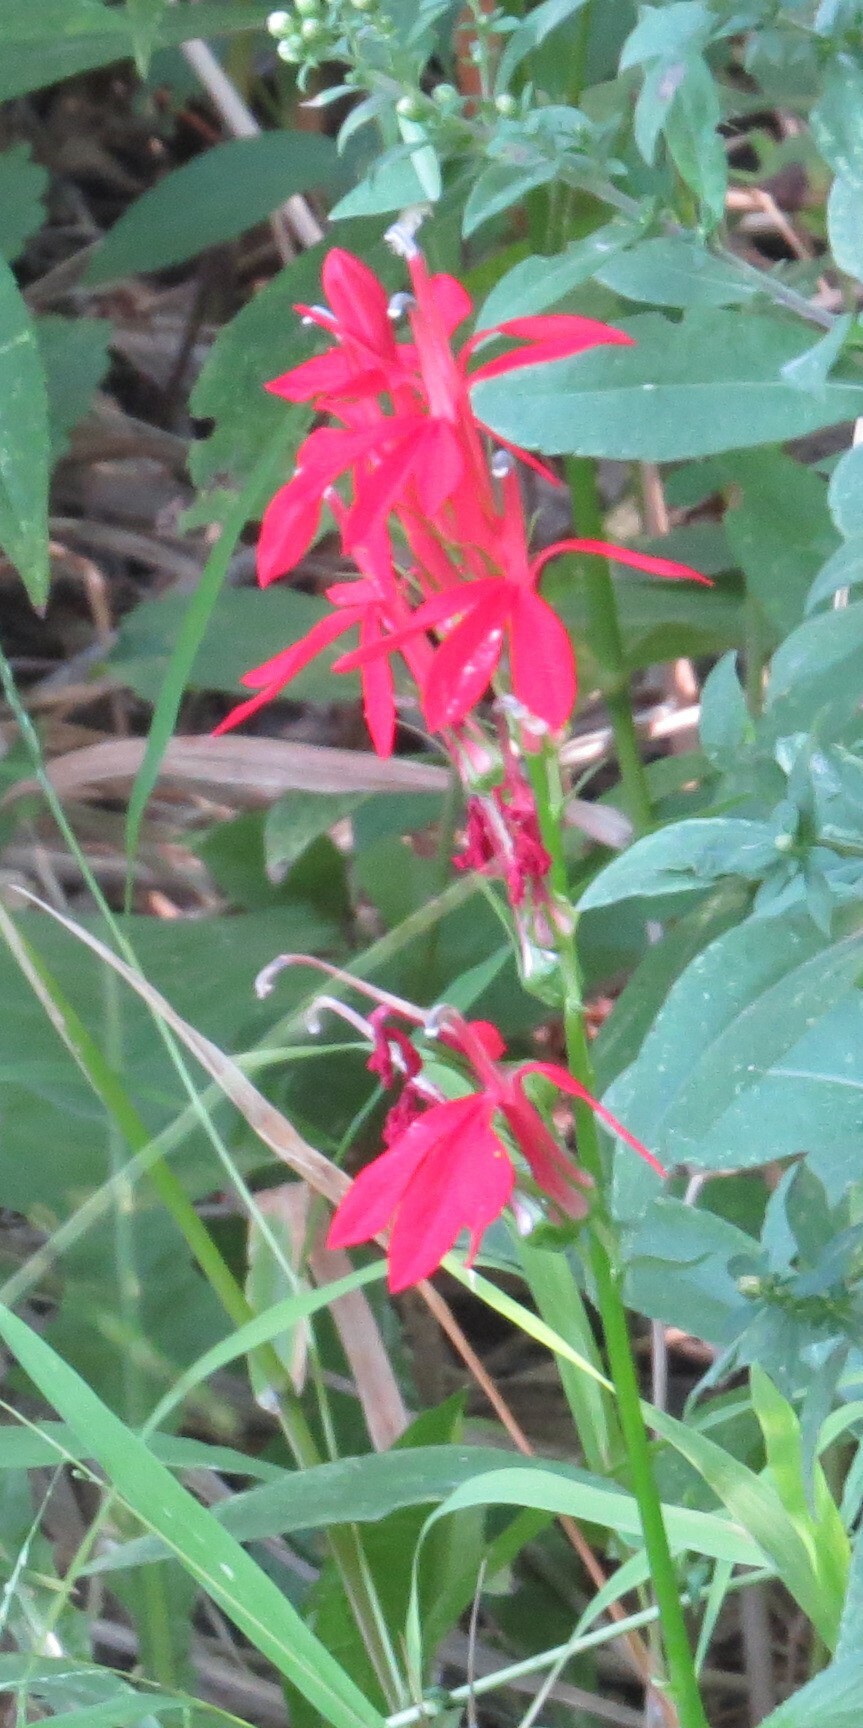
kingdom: Plantae
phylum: Tracheophyta
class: Magnoliopsida
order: Asterales
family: Campanulaceae
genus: Lobelia
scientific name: Lobelia cardinalis
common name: Cardinal flower
